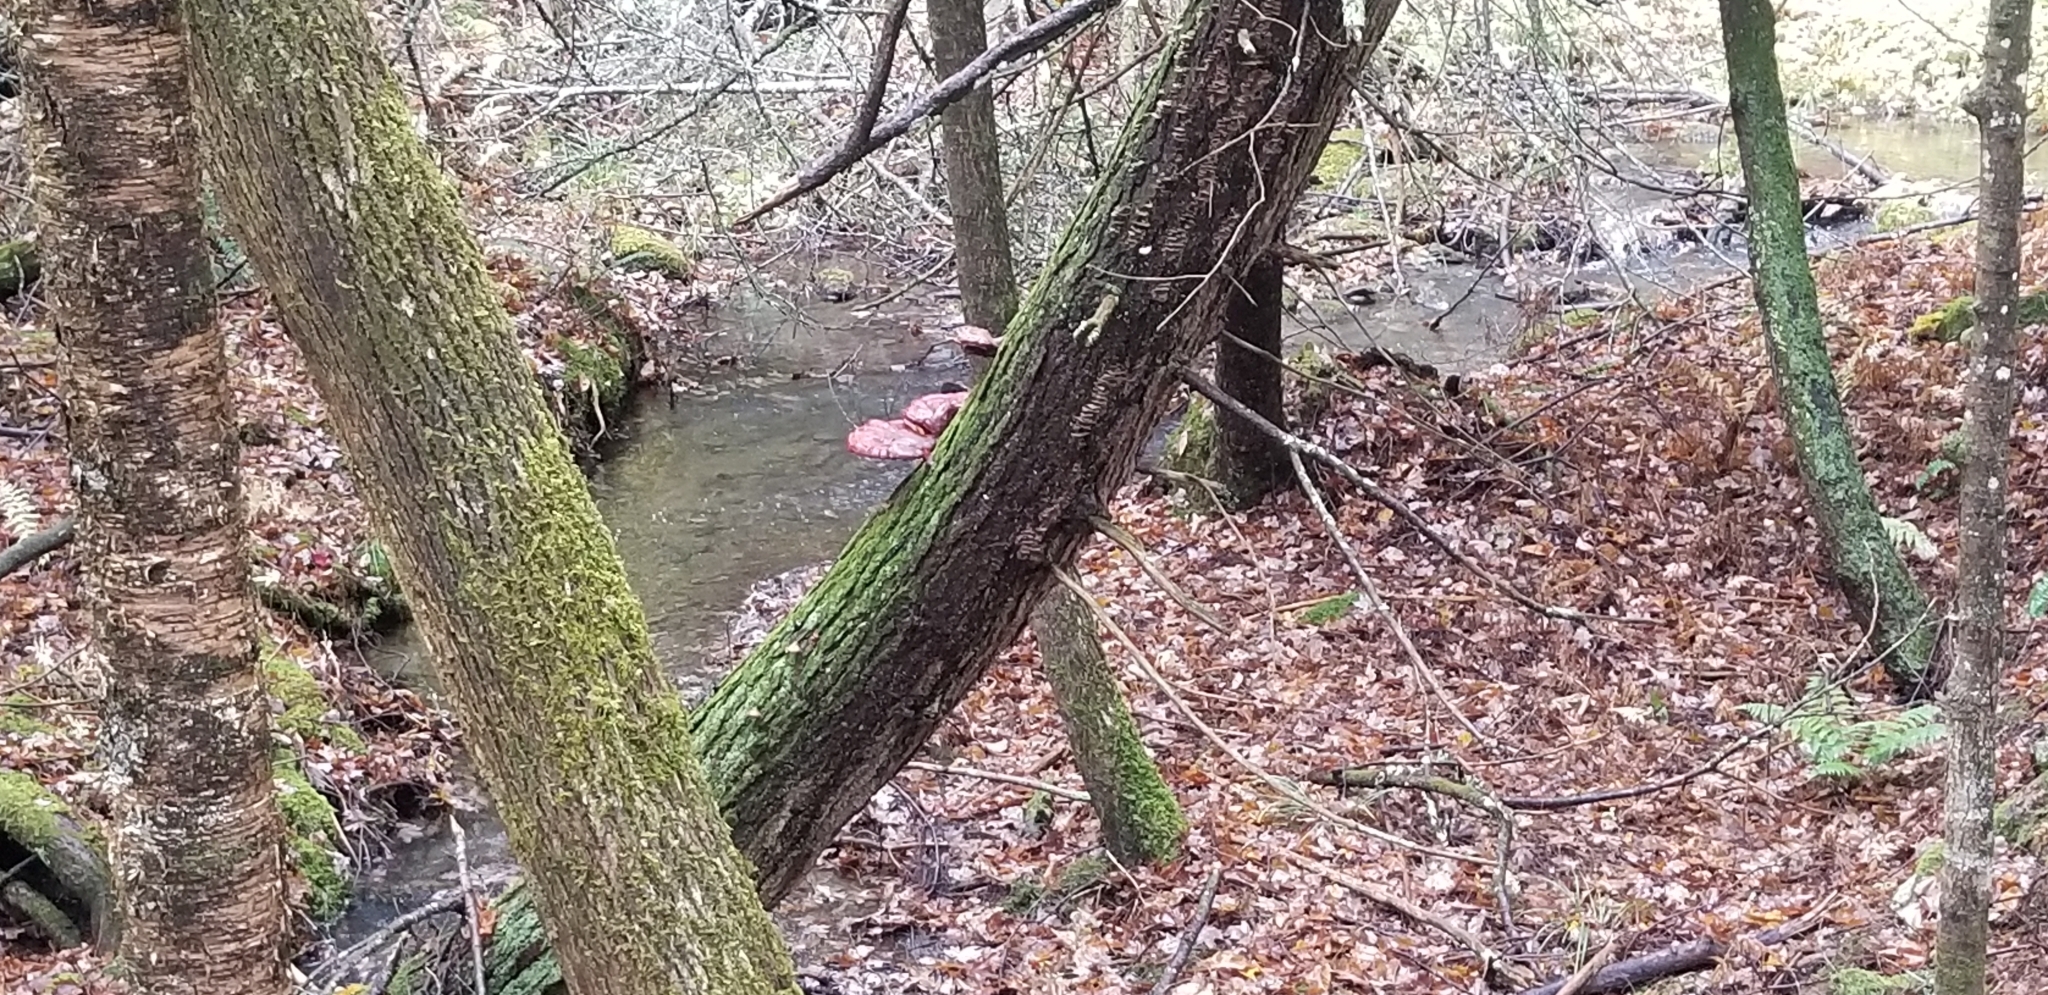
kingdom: Fungi
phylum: Basidiomycota
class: Agaricomycetes
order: Polyporales
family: Polyporaceae
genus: Ganoderma
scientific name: Ganoderma tsugae
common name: Hemlock varnish shelf
